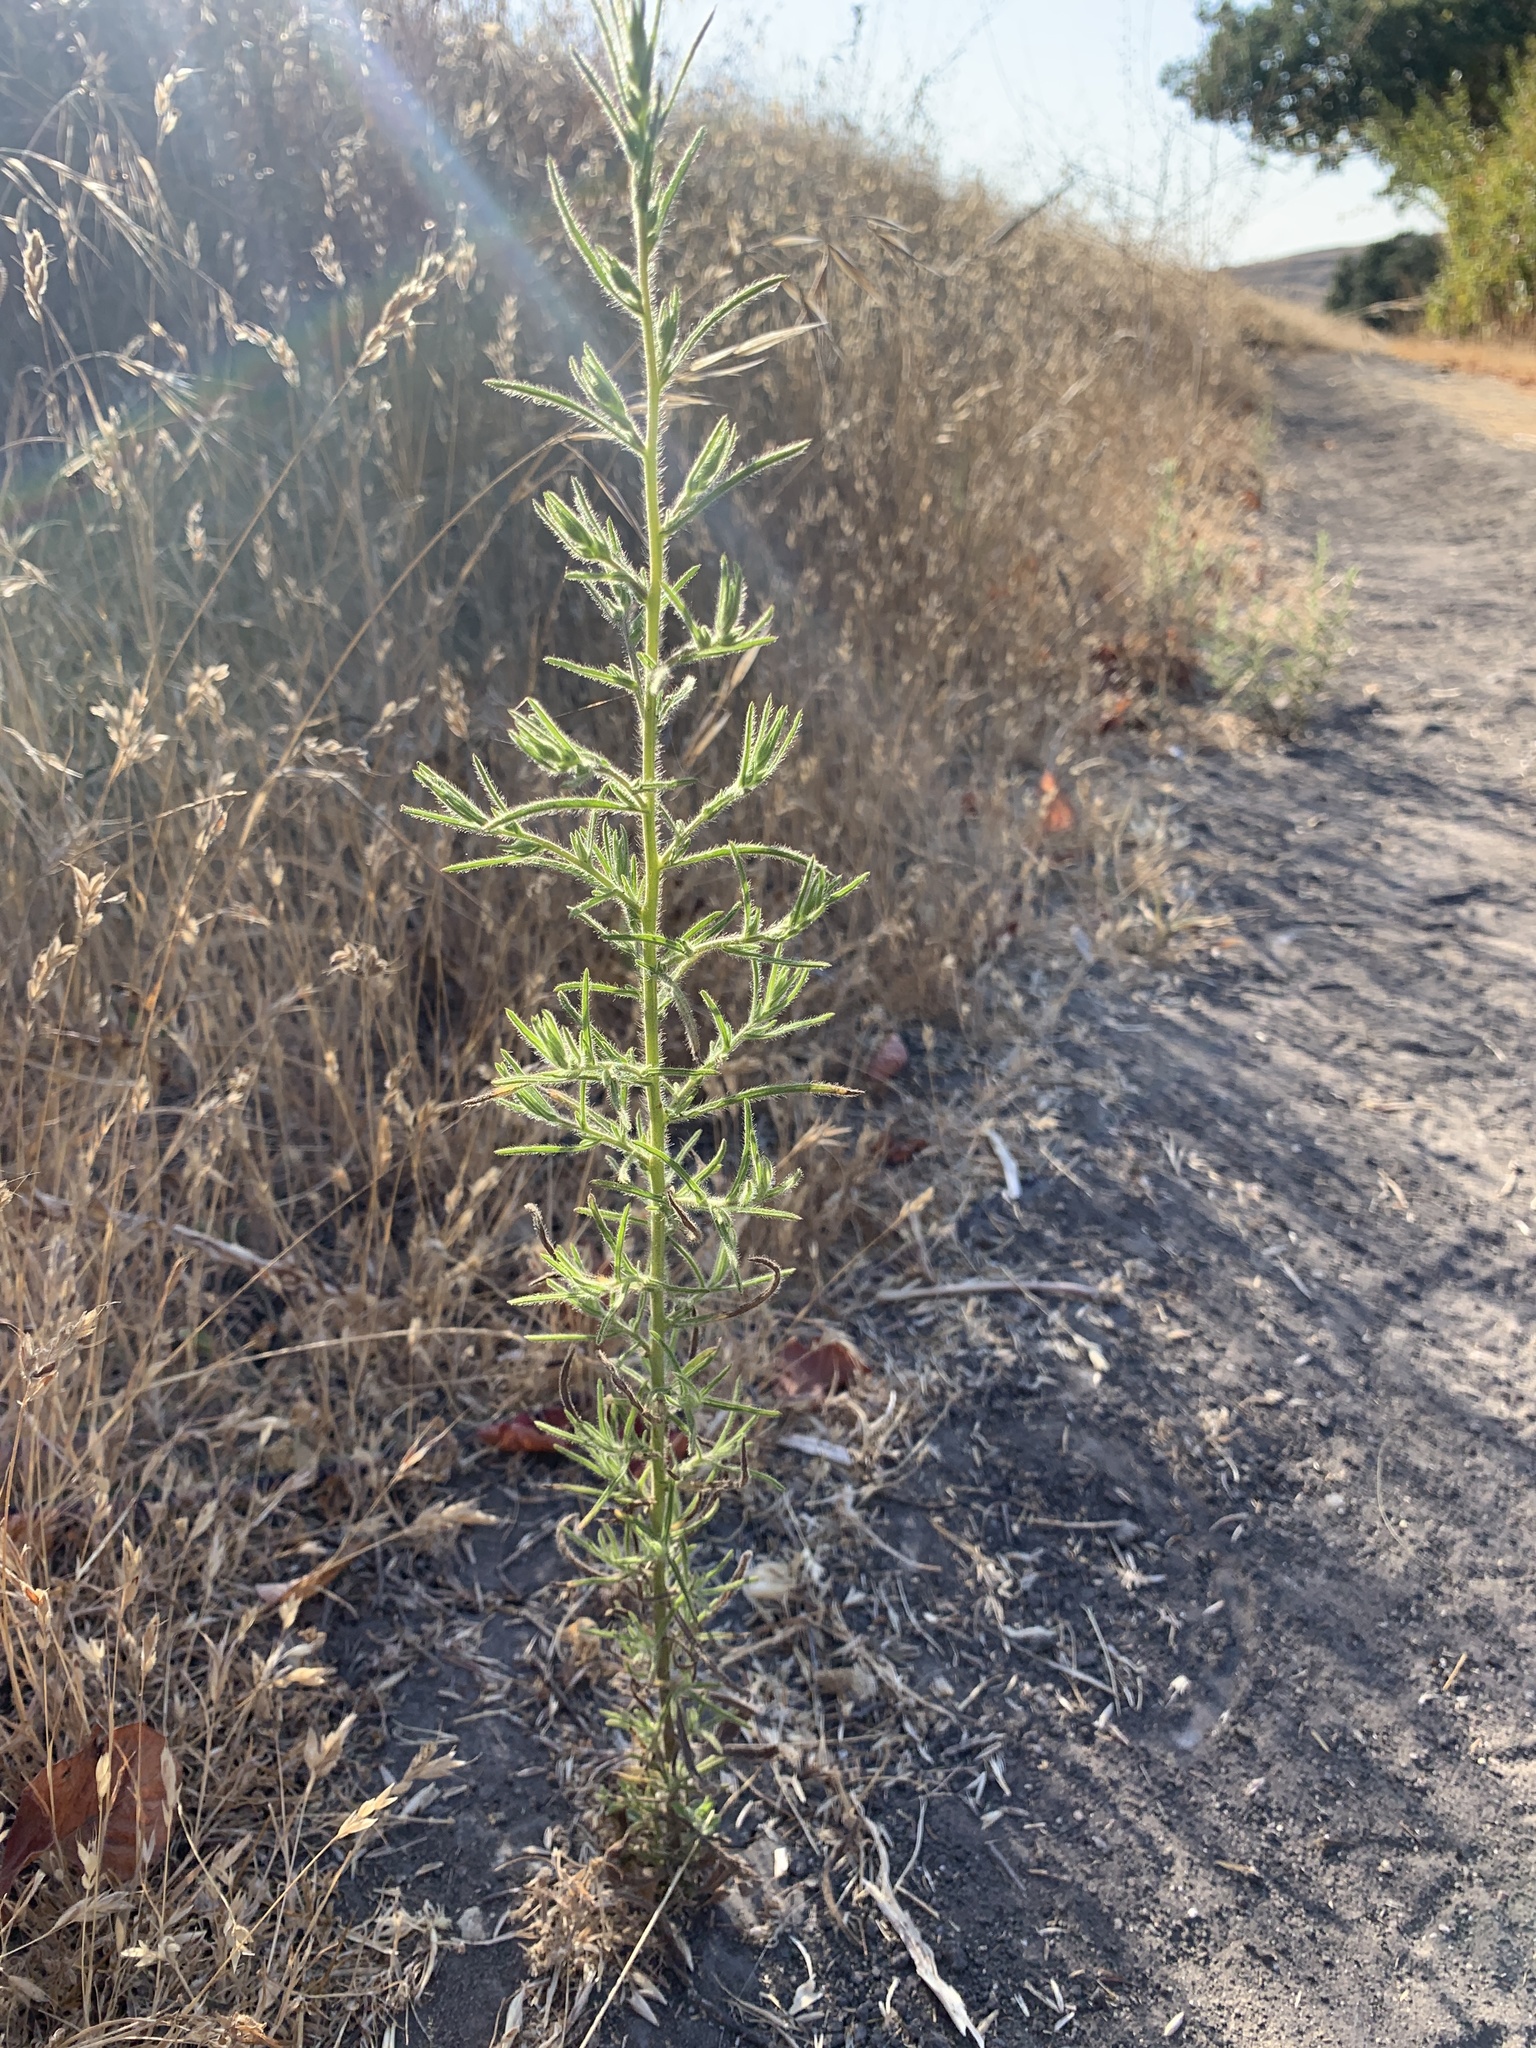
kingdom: Plantae
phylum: Tracheophyta
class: Magnoliopsida
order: Asterales
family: Asteraceae
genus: Dittrichia
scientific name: Dittrichia graveolens
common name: Stinking fleabane
